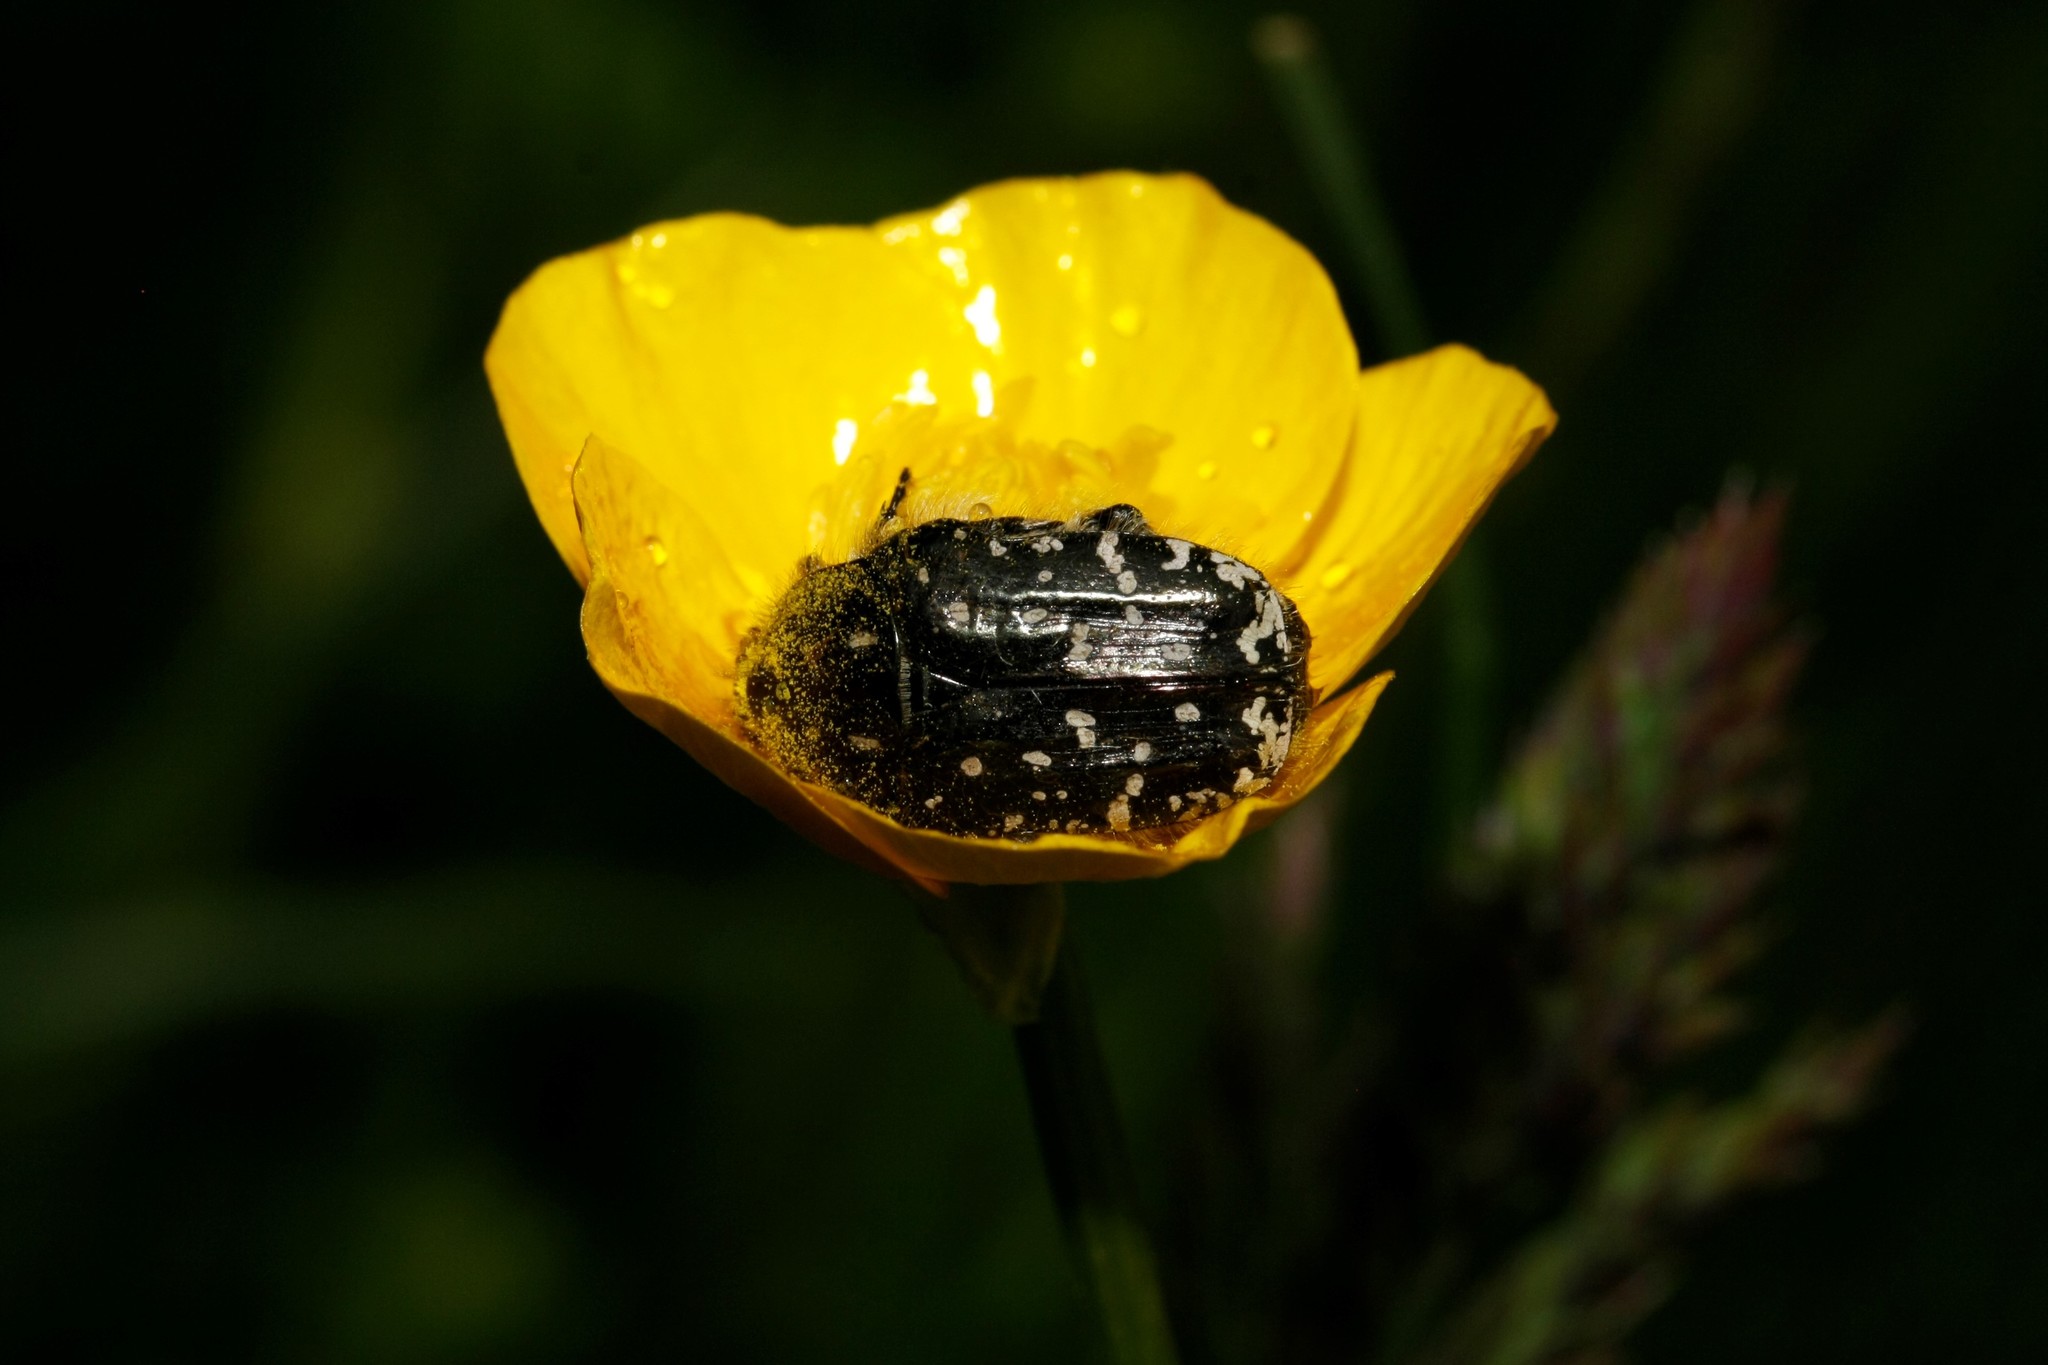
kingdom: Animalia
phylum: Arthropoda
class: Insecta
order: Coleoptera
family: Scarabaeidae
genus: Oxythyrea
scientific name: Oxythyrea funesta
